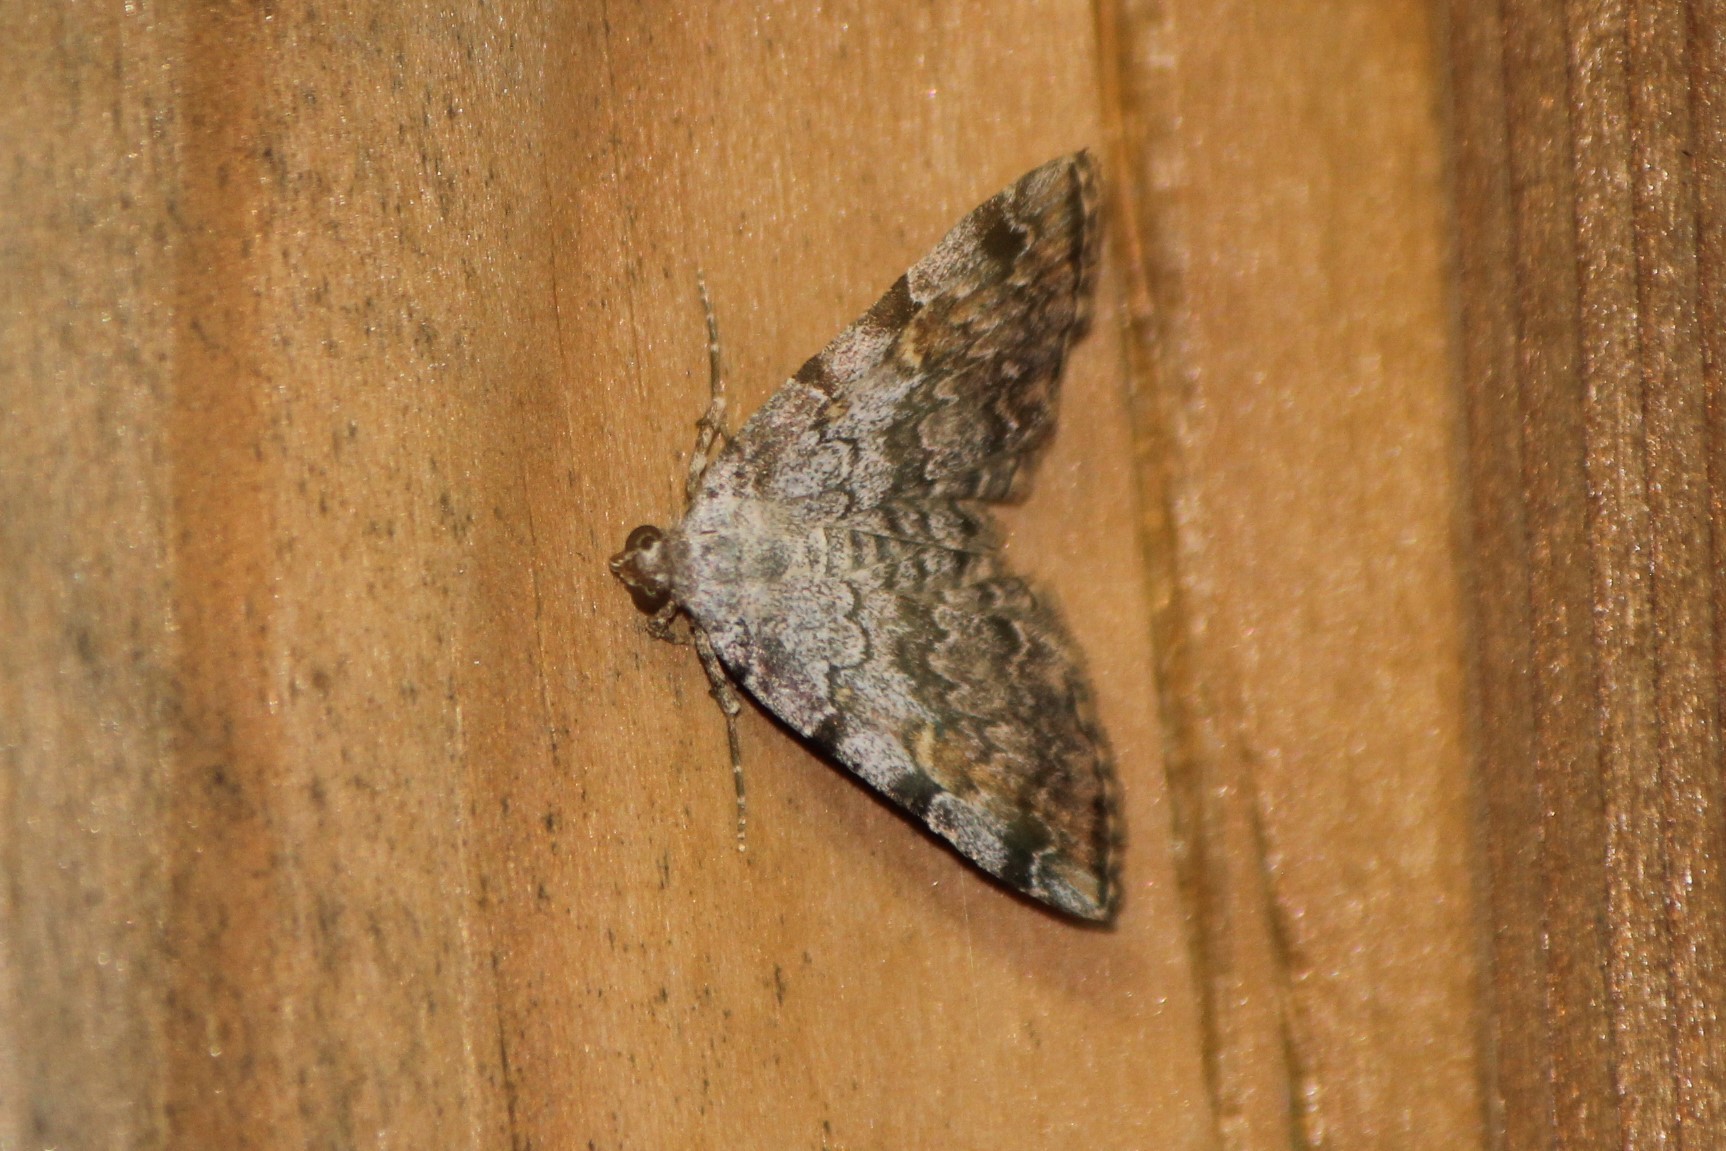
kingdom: Animalia
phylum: Arthropoda
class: Insecta
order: Lepidoptera
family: Erebidae
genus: Idia
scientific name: Idia americalis
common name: American idia moth
